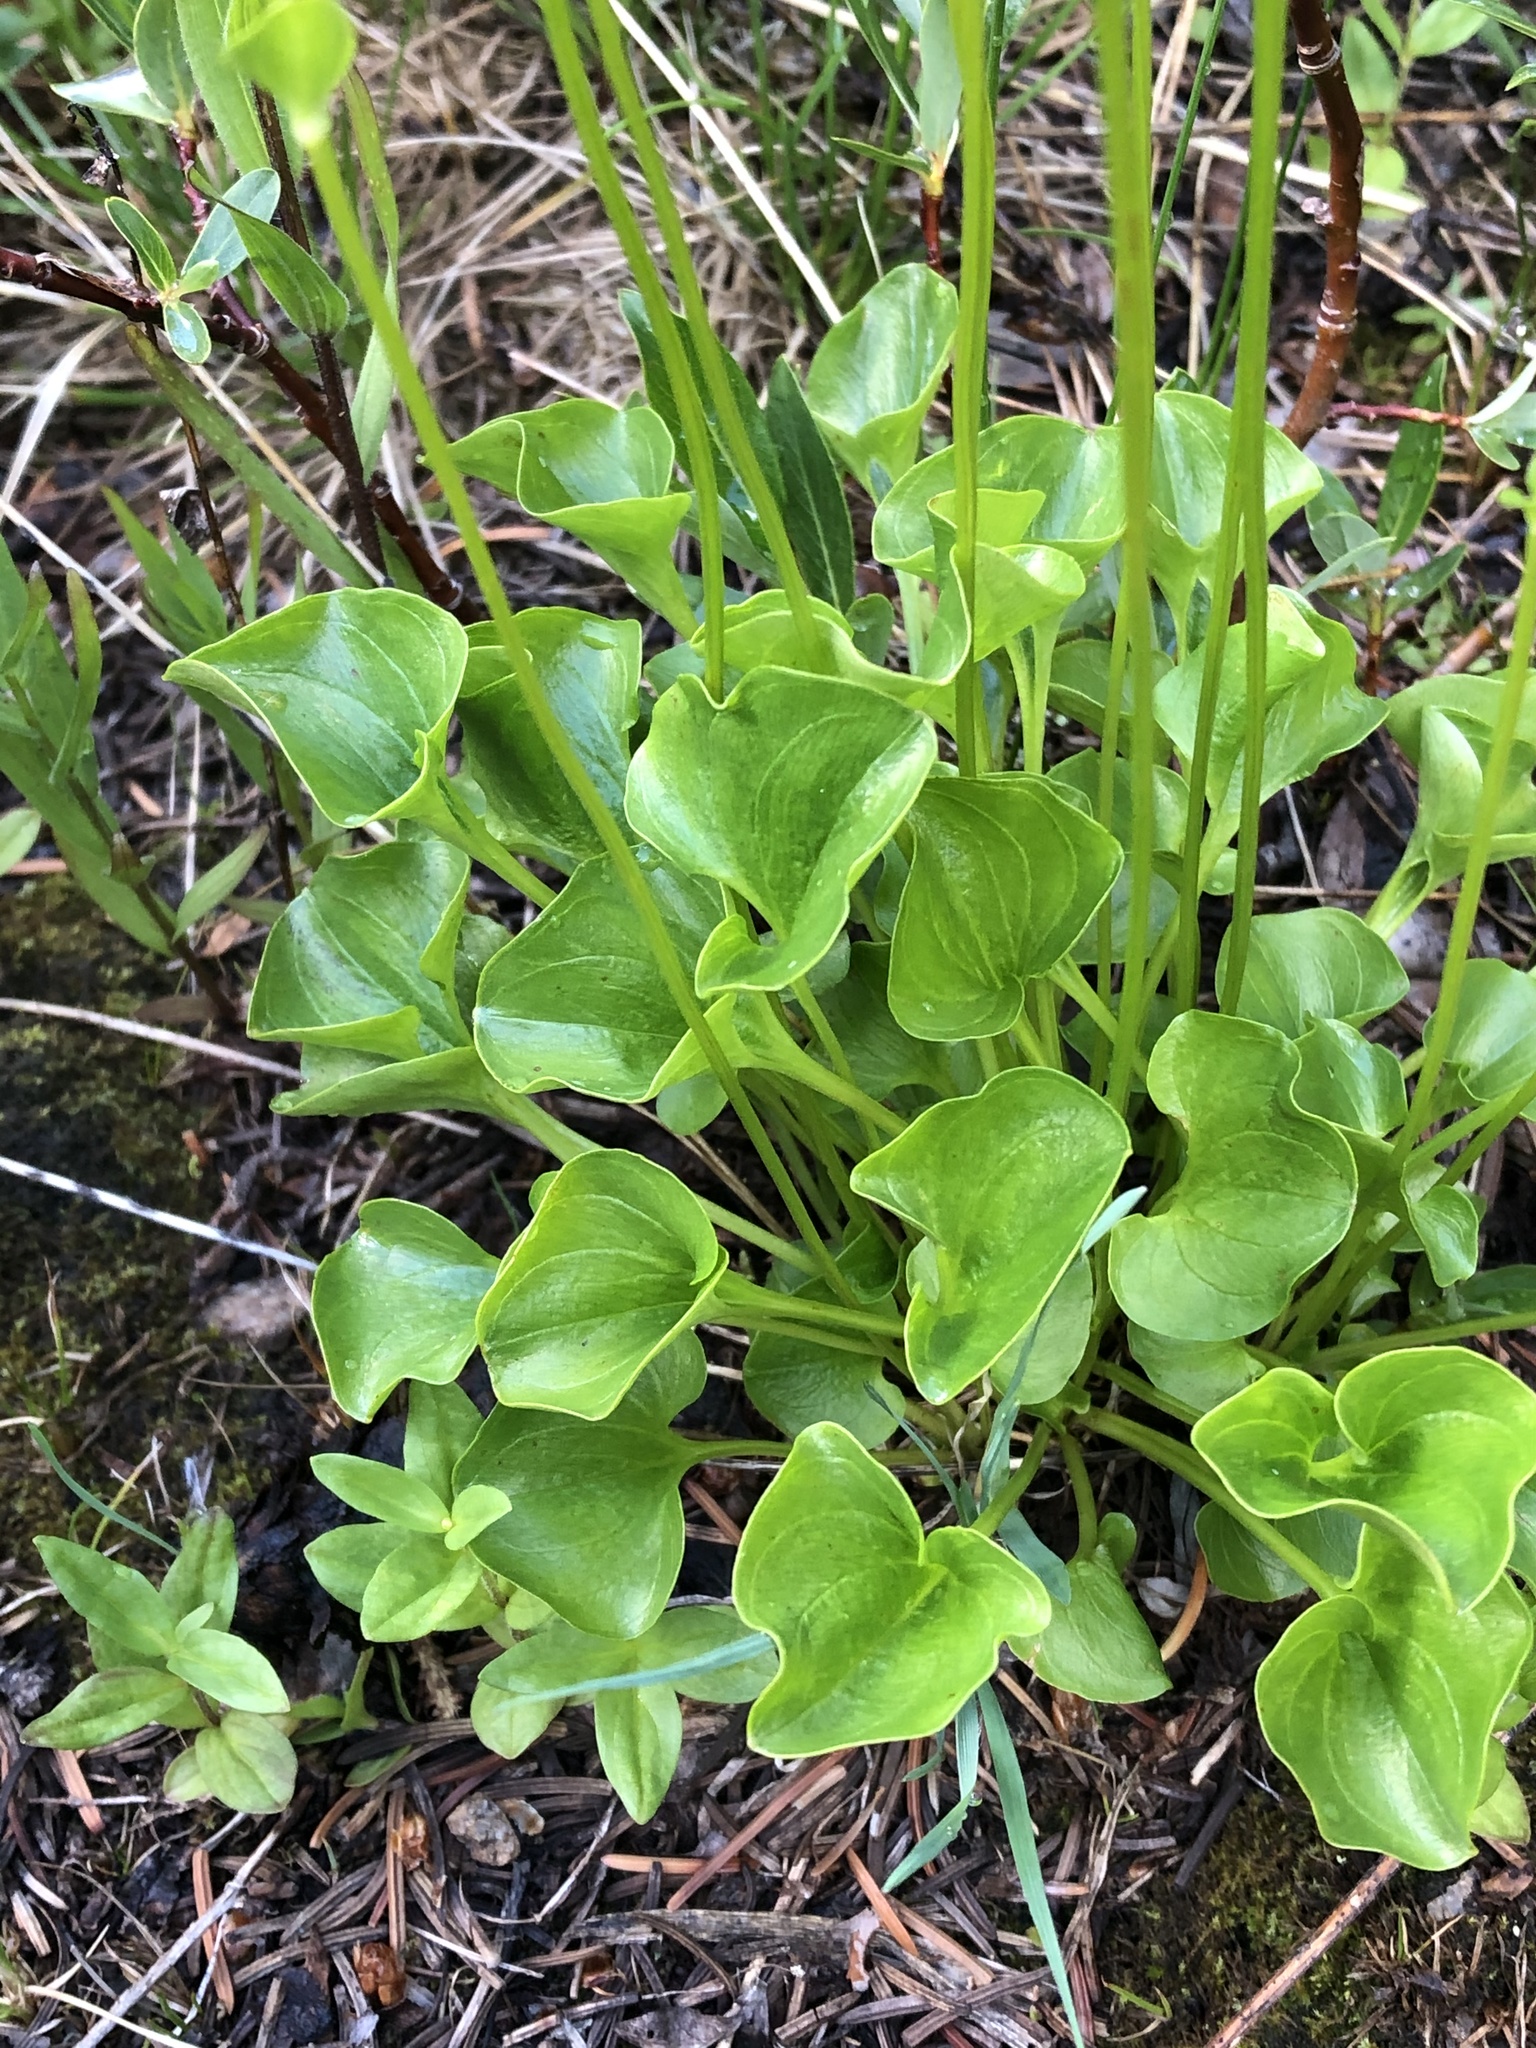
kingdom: Plantae
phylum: Tracheophyta
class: Magnoliopsida
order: Celastrales
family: Parnassiaceae
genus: Parnassia
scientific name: Parnassia fimbriata
